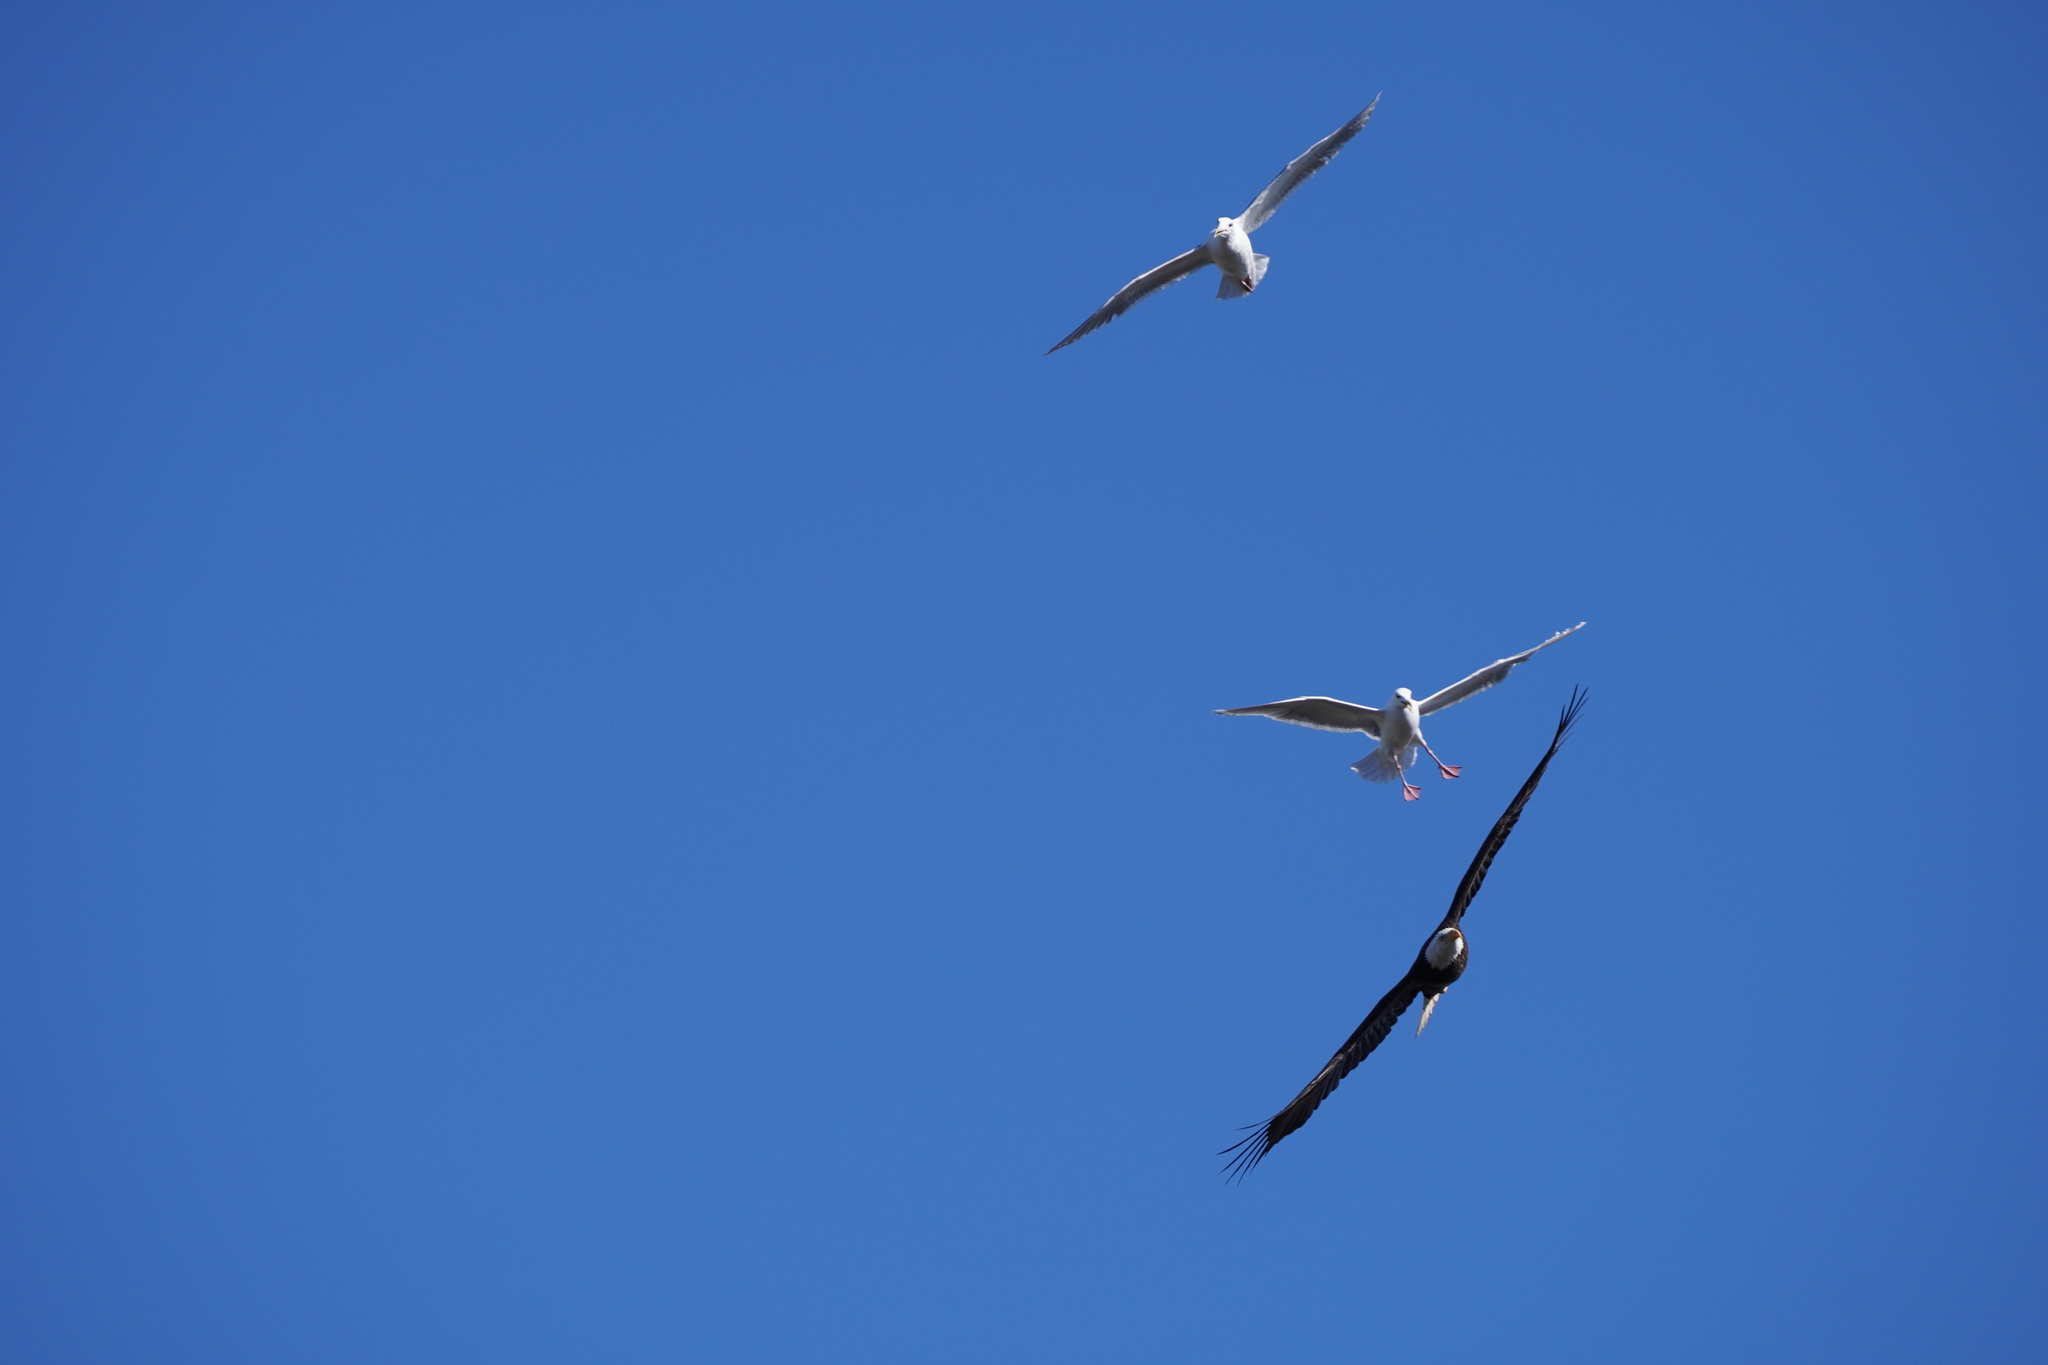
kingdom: Animalia
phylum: Chordata
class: Aves
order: Accipitriformes
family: Accipitridae
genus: Haliaeetus
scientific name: Haliaeetus leucocephalus
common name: Bald eagle
